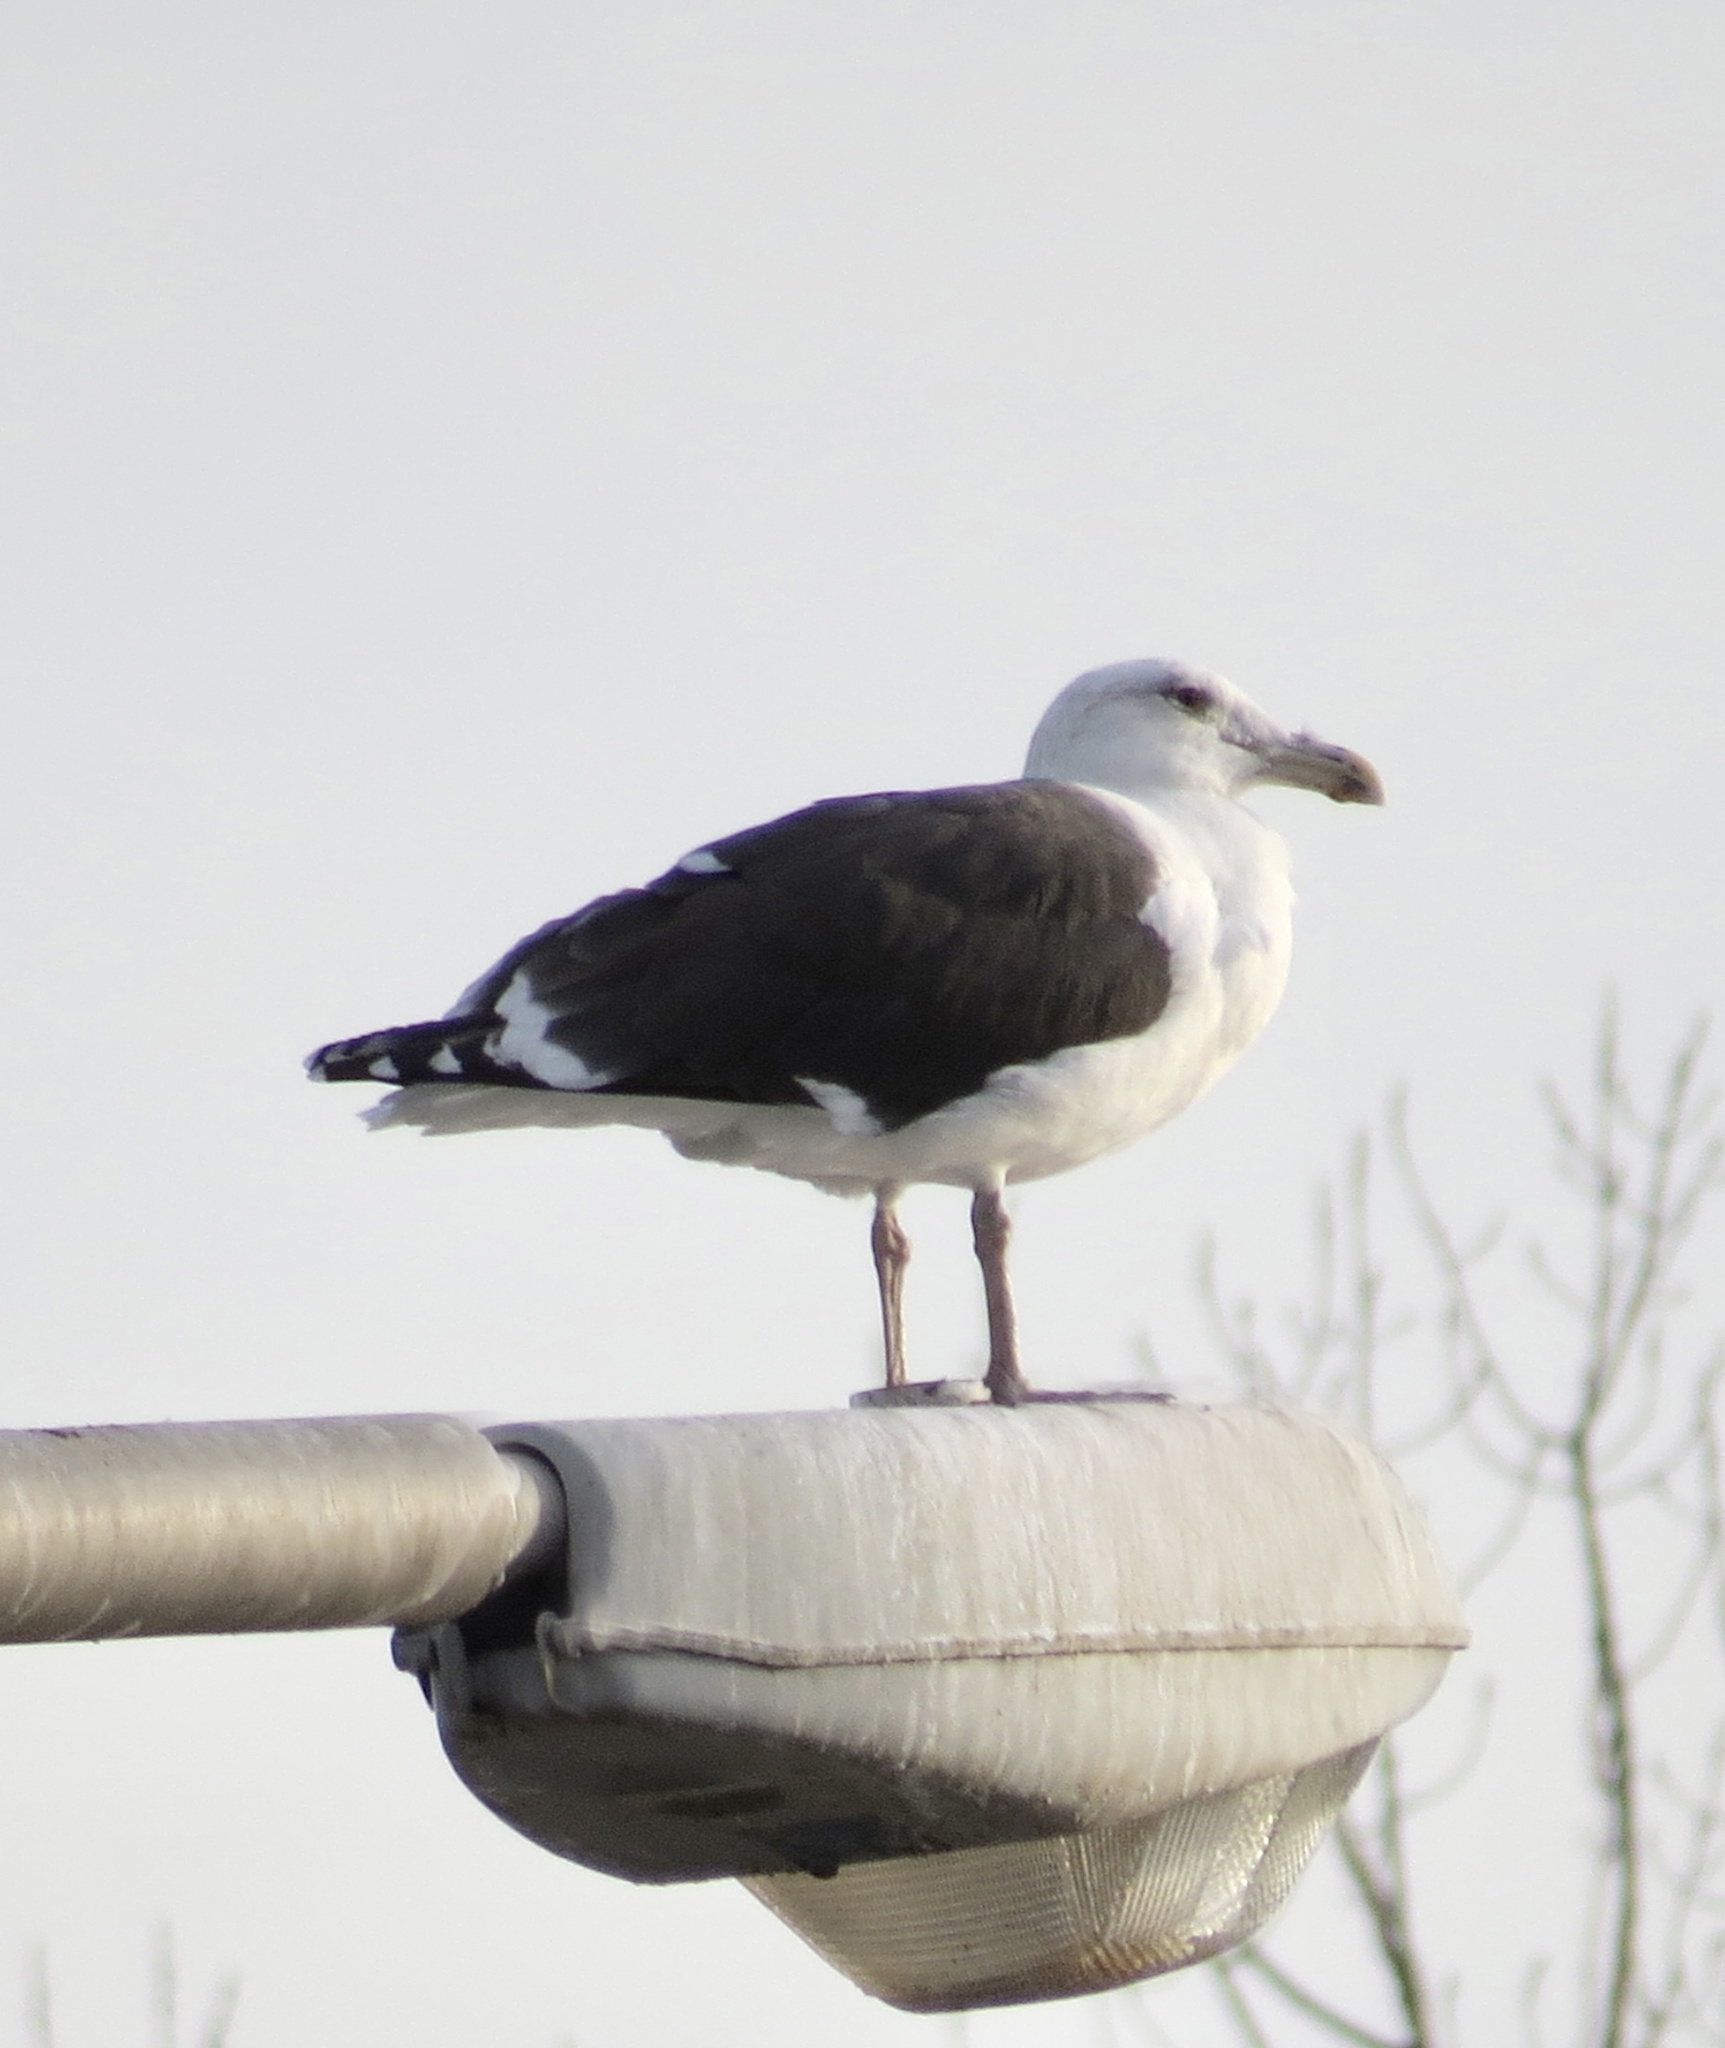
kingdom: Animalia
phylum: Chordata
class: Aves
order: Charadriiformes
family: Laridae
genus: Larus
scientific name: Larus marinus
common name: Great black-backed gull
